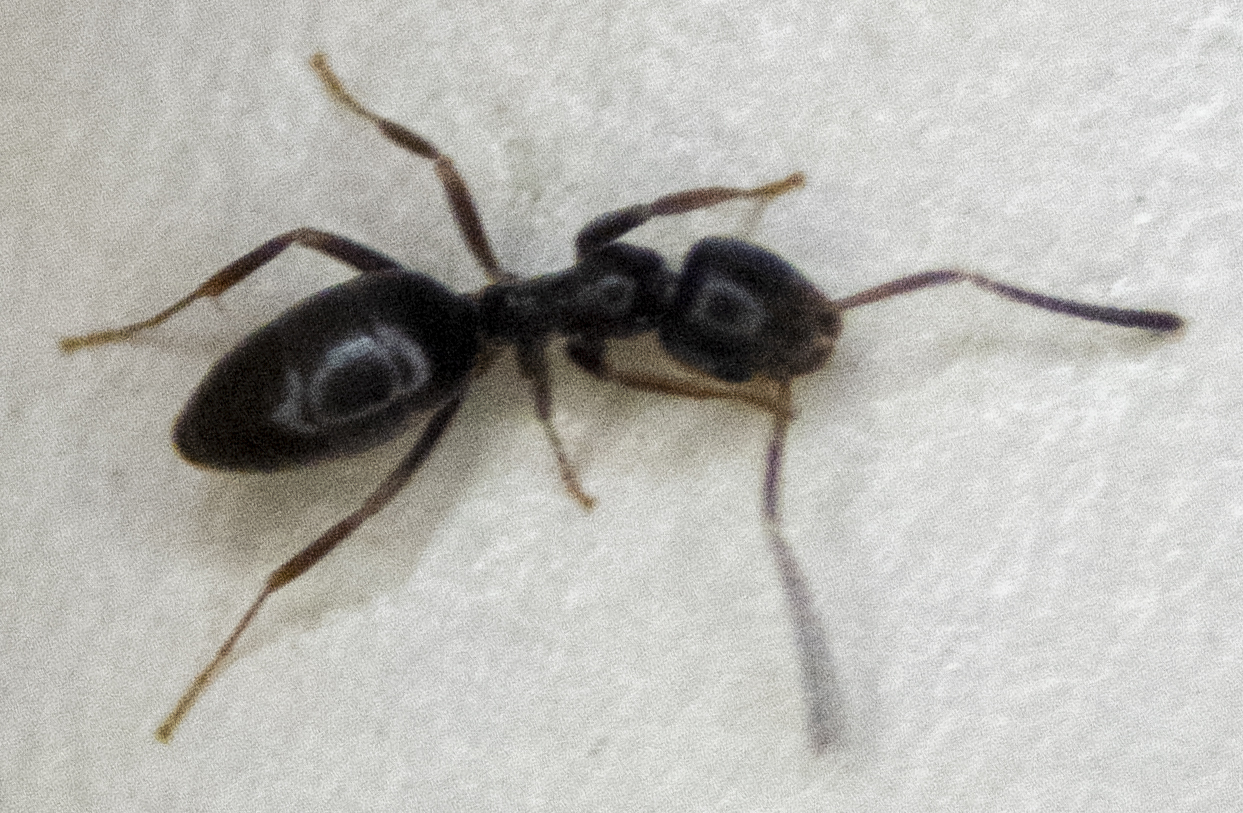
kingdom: Animalia
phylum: Arthropoda
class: Insecta
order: Hymenoptera
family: Formicidae
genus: Tapinoma
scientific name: Tapinoma sessile
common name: Odorous house ant
